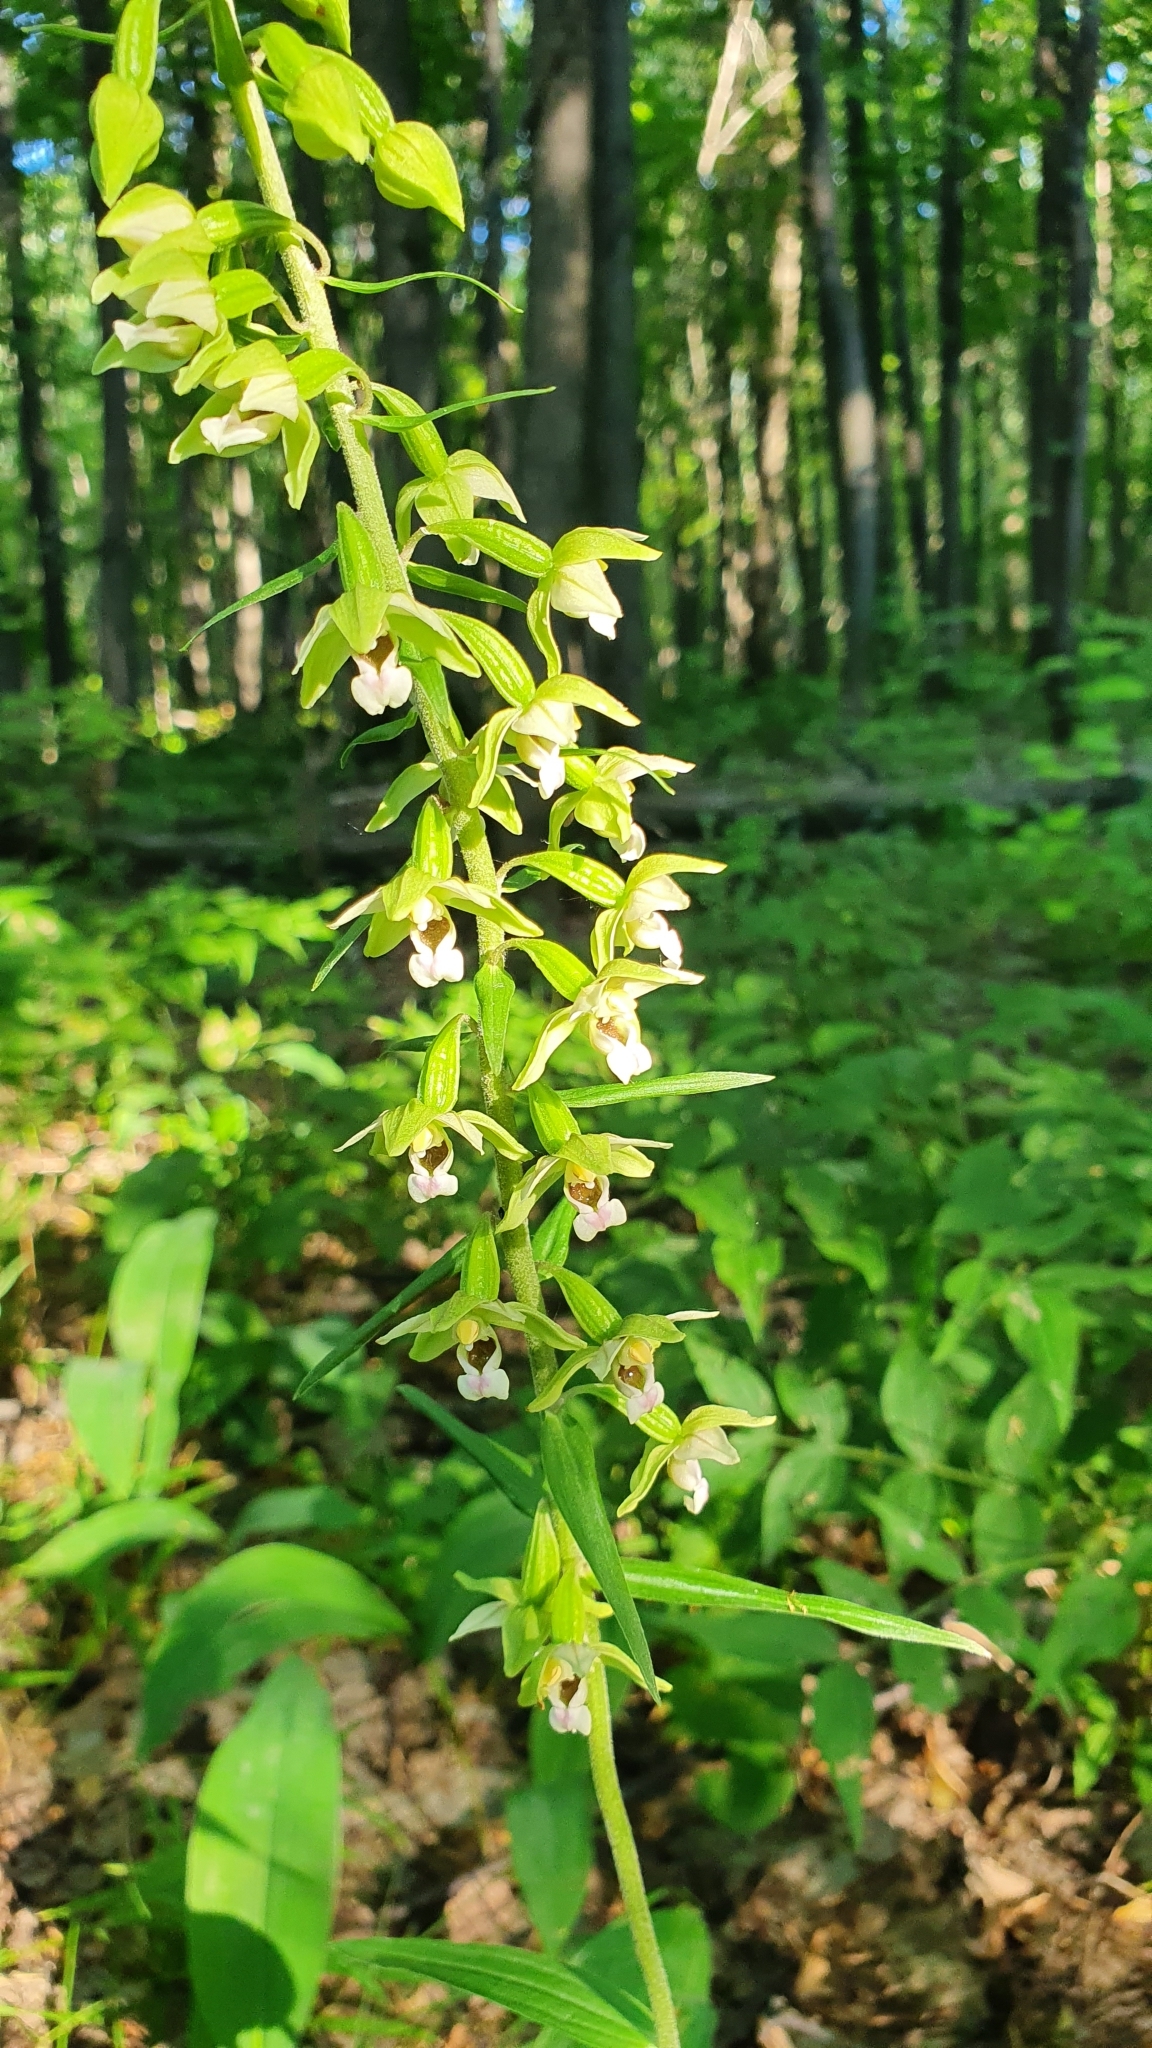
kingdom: Plantae
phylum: Tracheophyta
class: Liliopsida
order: Asparagales
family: Orchidaceae
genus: Epipactis
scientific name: Epipactis helleborine
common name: Broad-leaved helleborine
